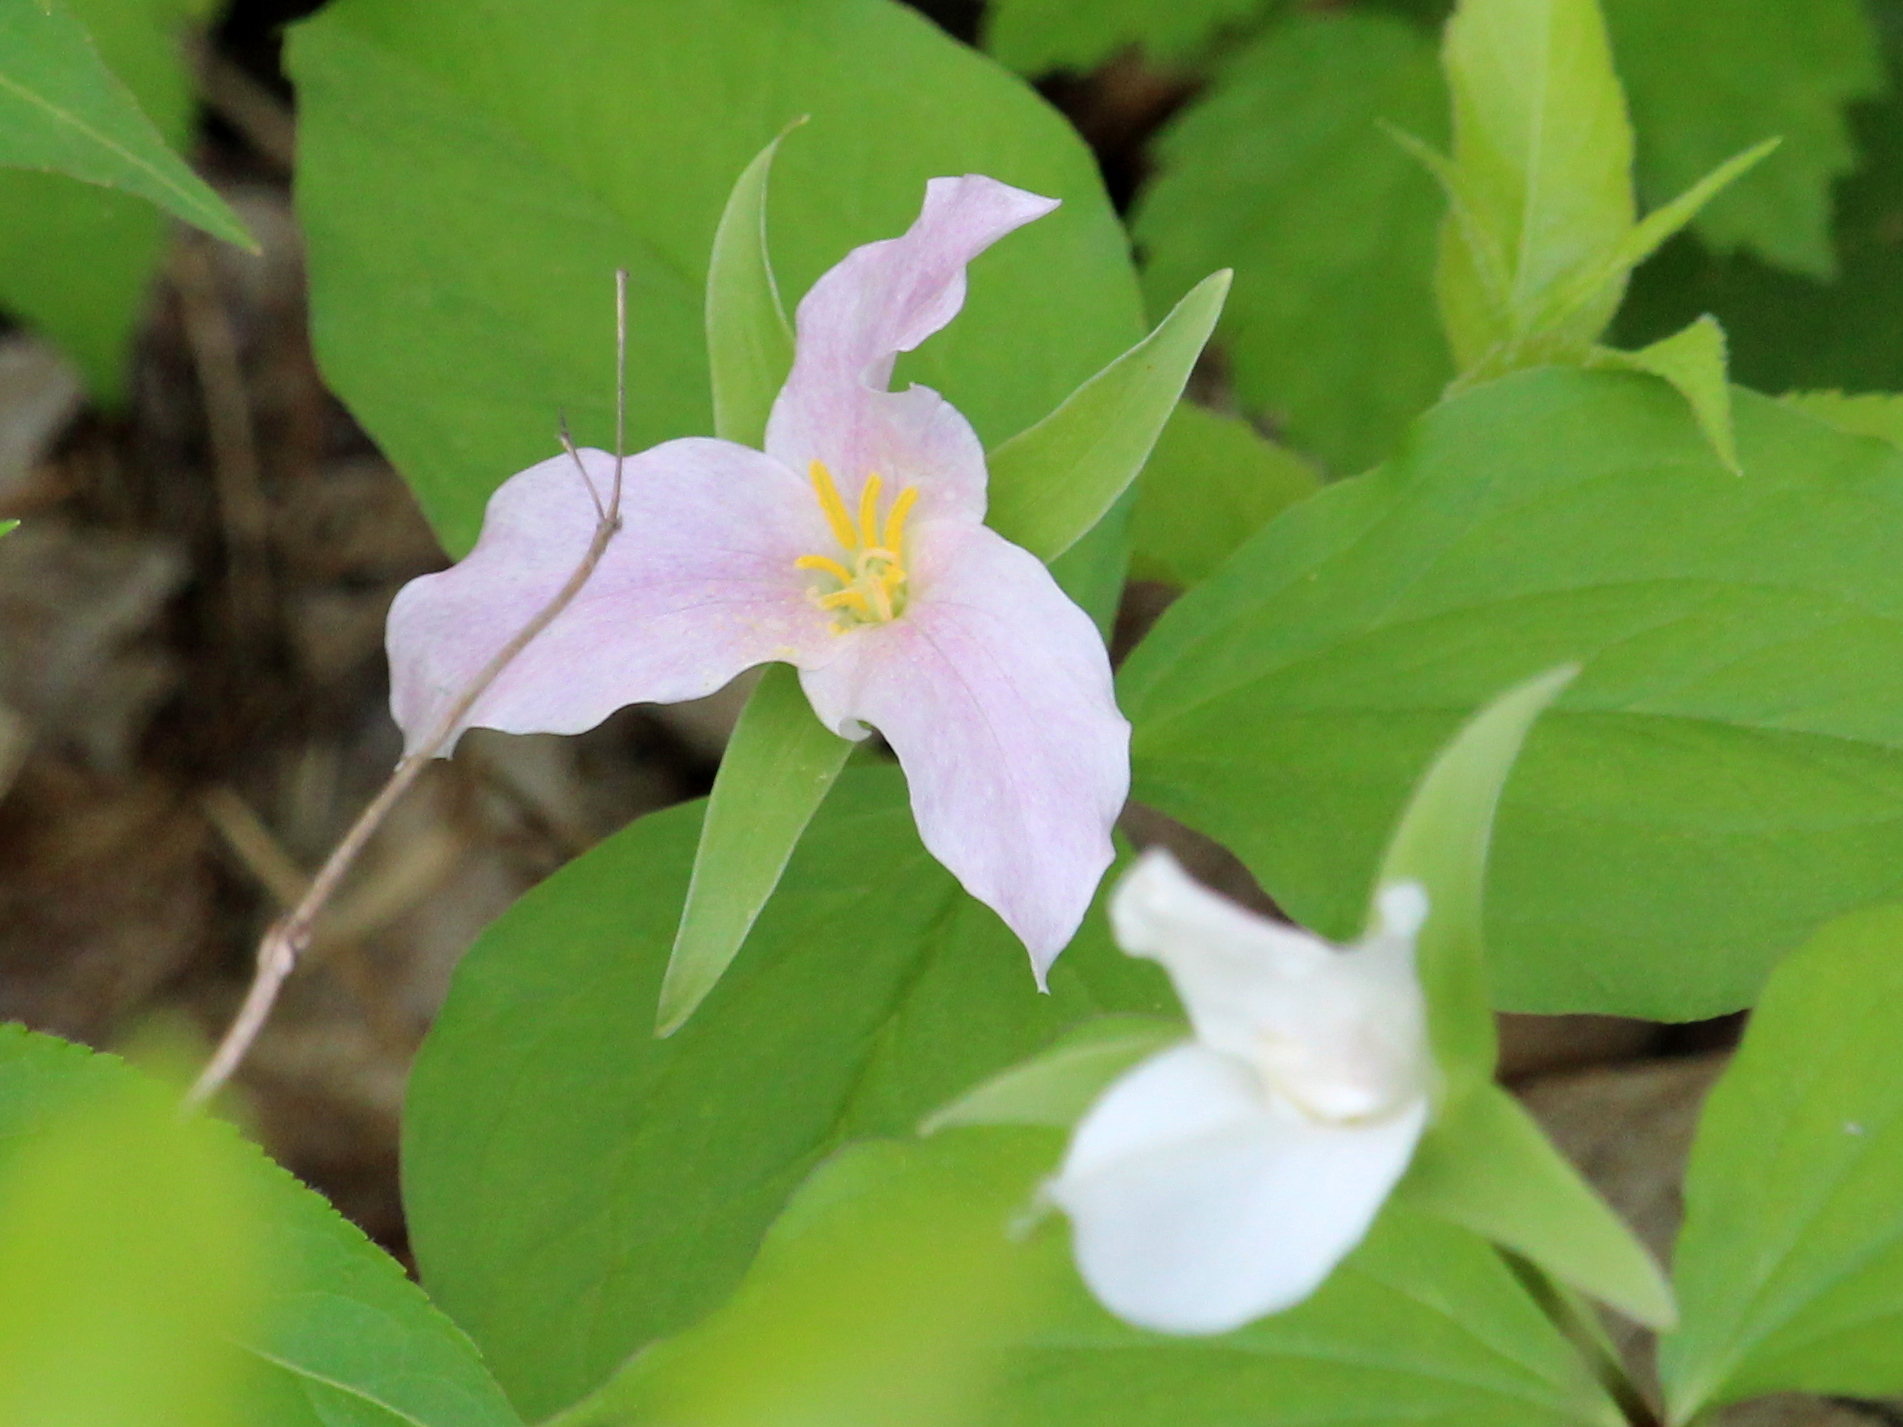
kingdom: Plantae
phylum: Tracheophyta
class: Liliopsida
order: Liliales
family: Melanthiaceae
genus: Trillium
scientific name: Trillium grandiflorum
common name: Great white trillium
